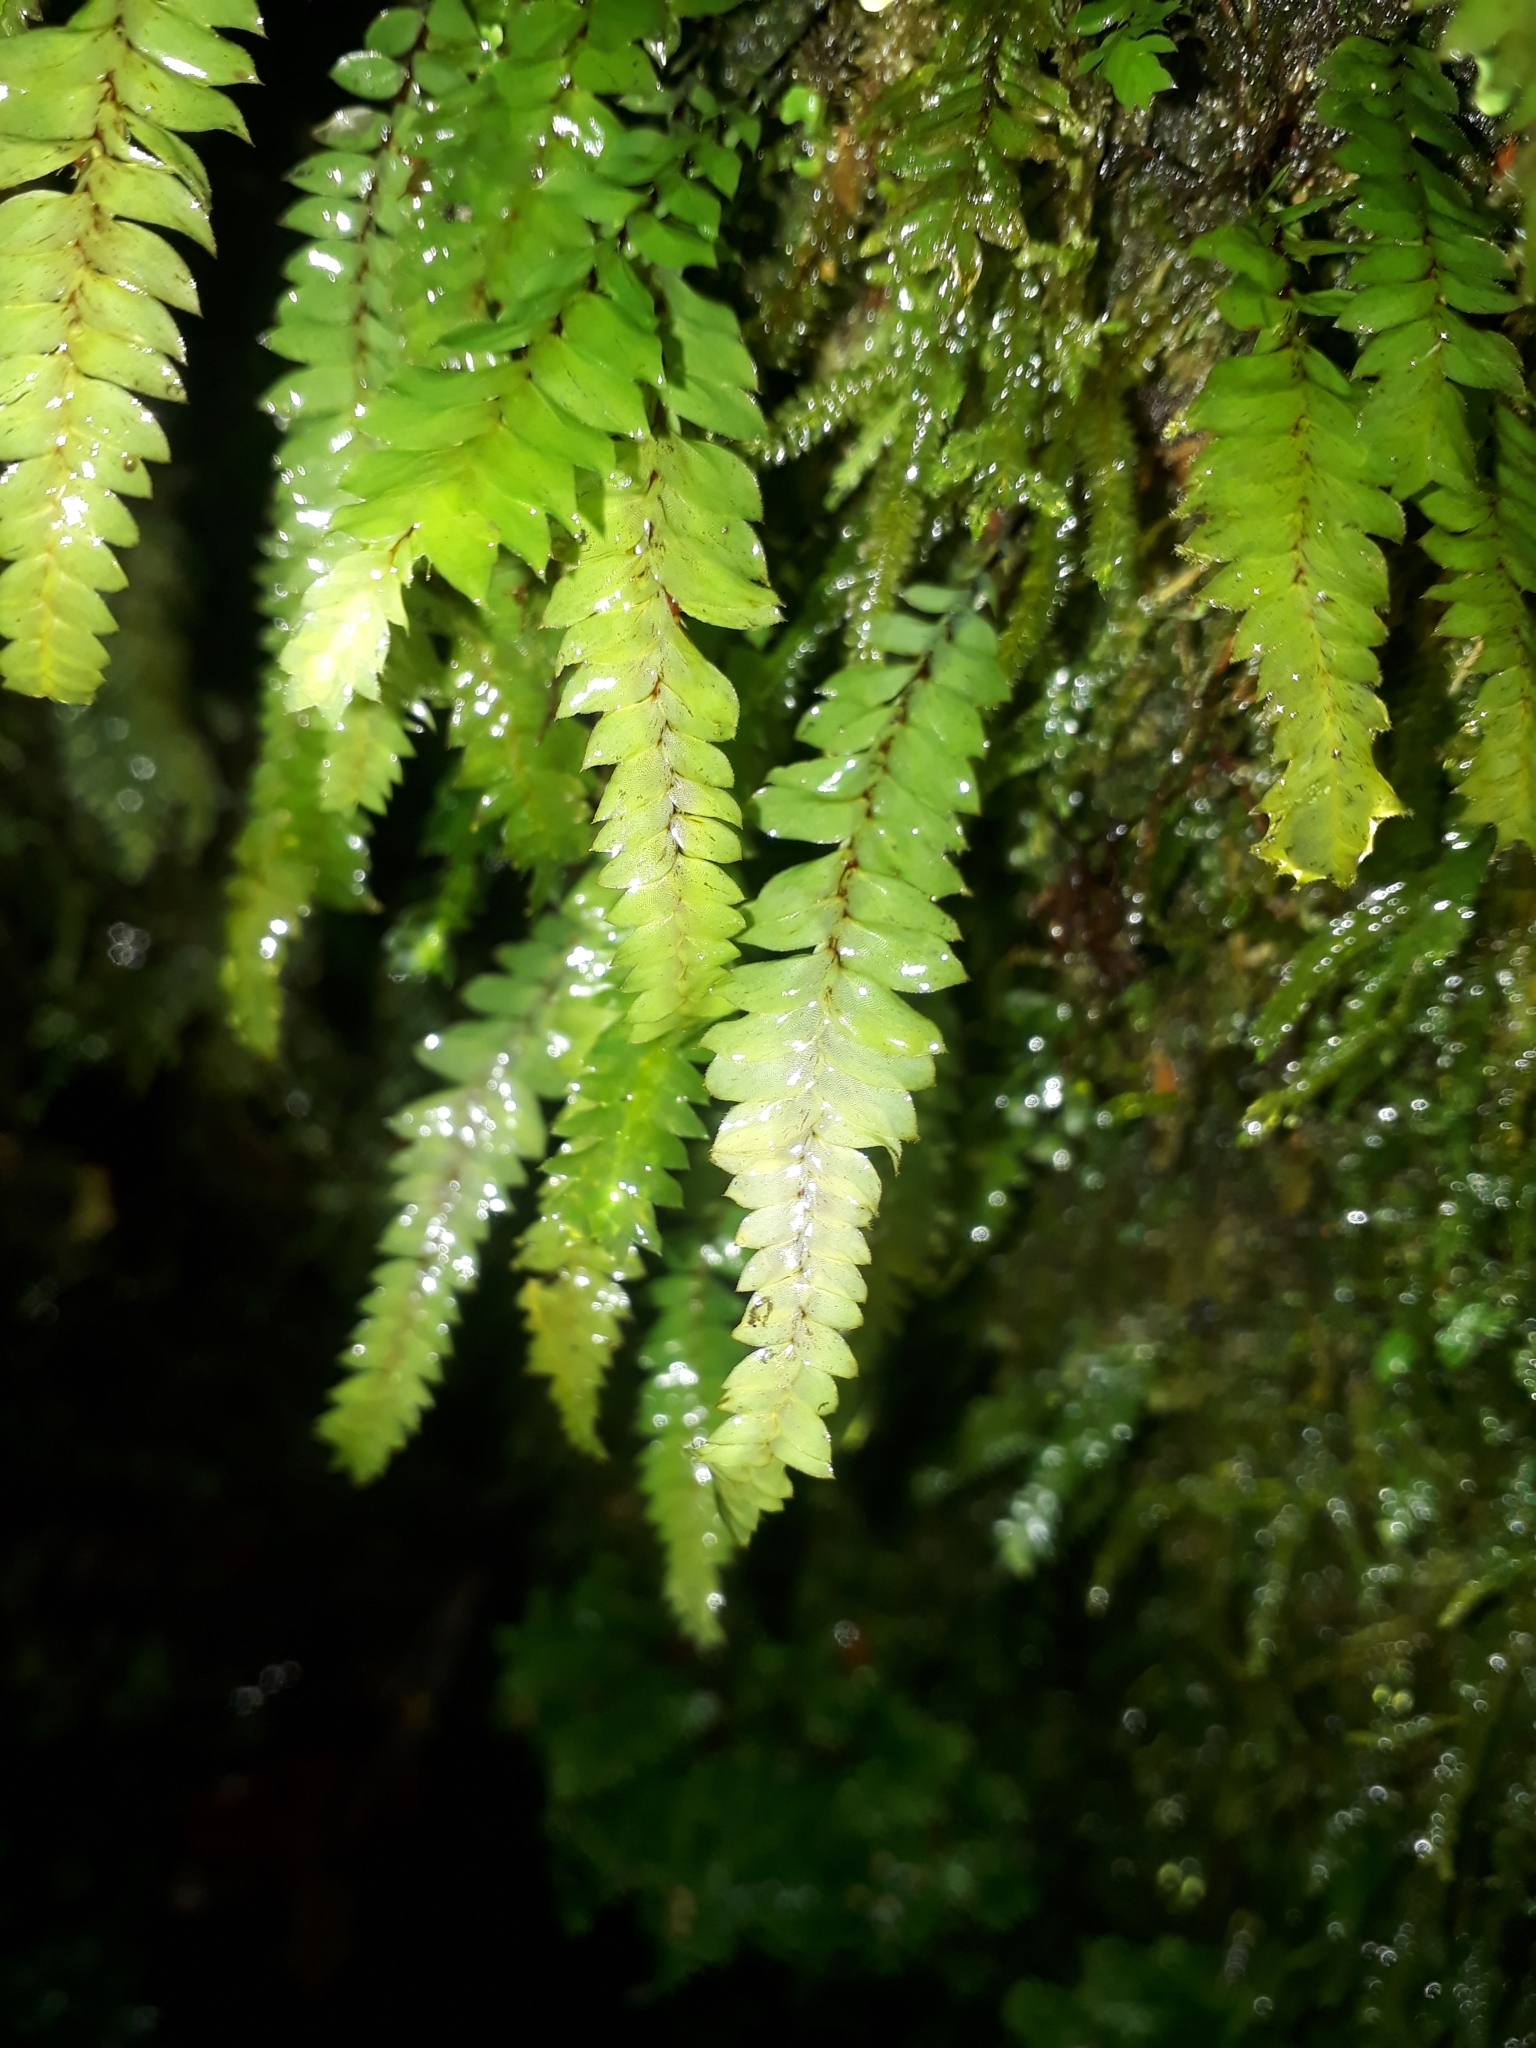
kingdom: Plantae
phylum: Bryophyta
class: Bryopsida
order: Hypopterygiales
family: Hypopterygiaceae
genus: Cyathophorum
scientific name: Cyathophorum bulbosum
